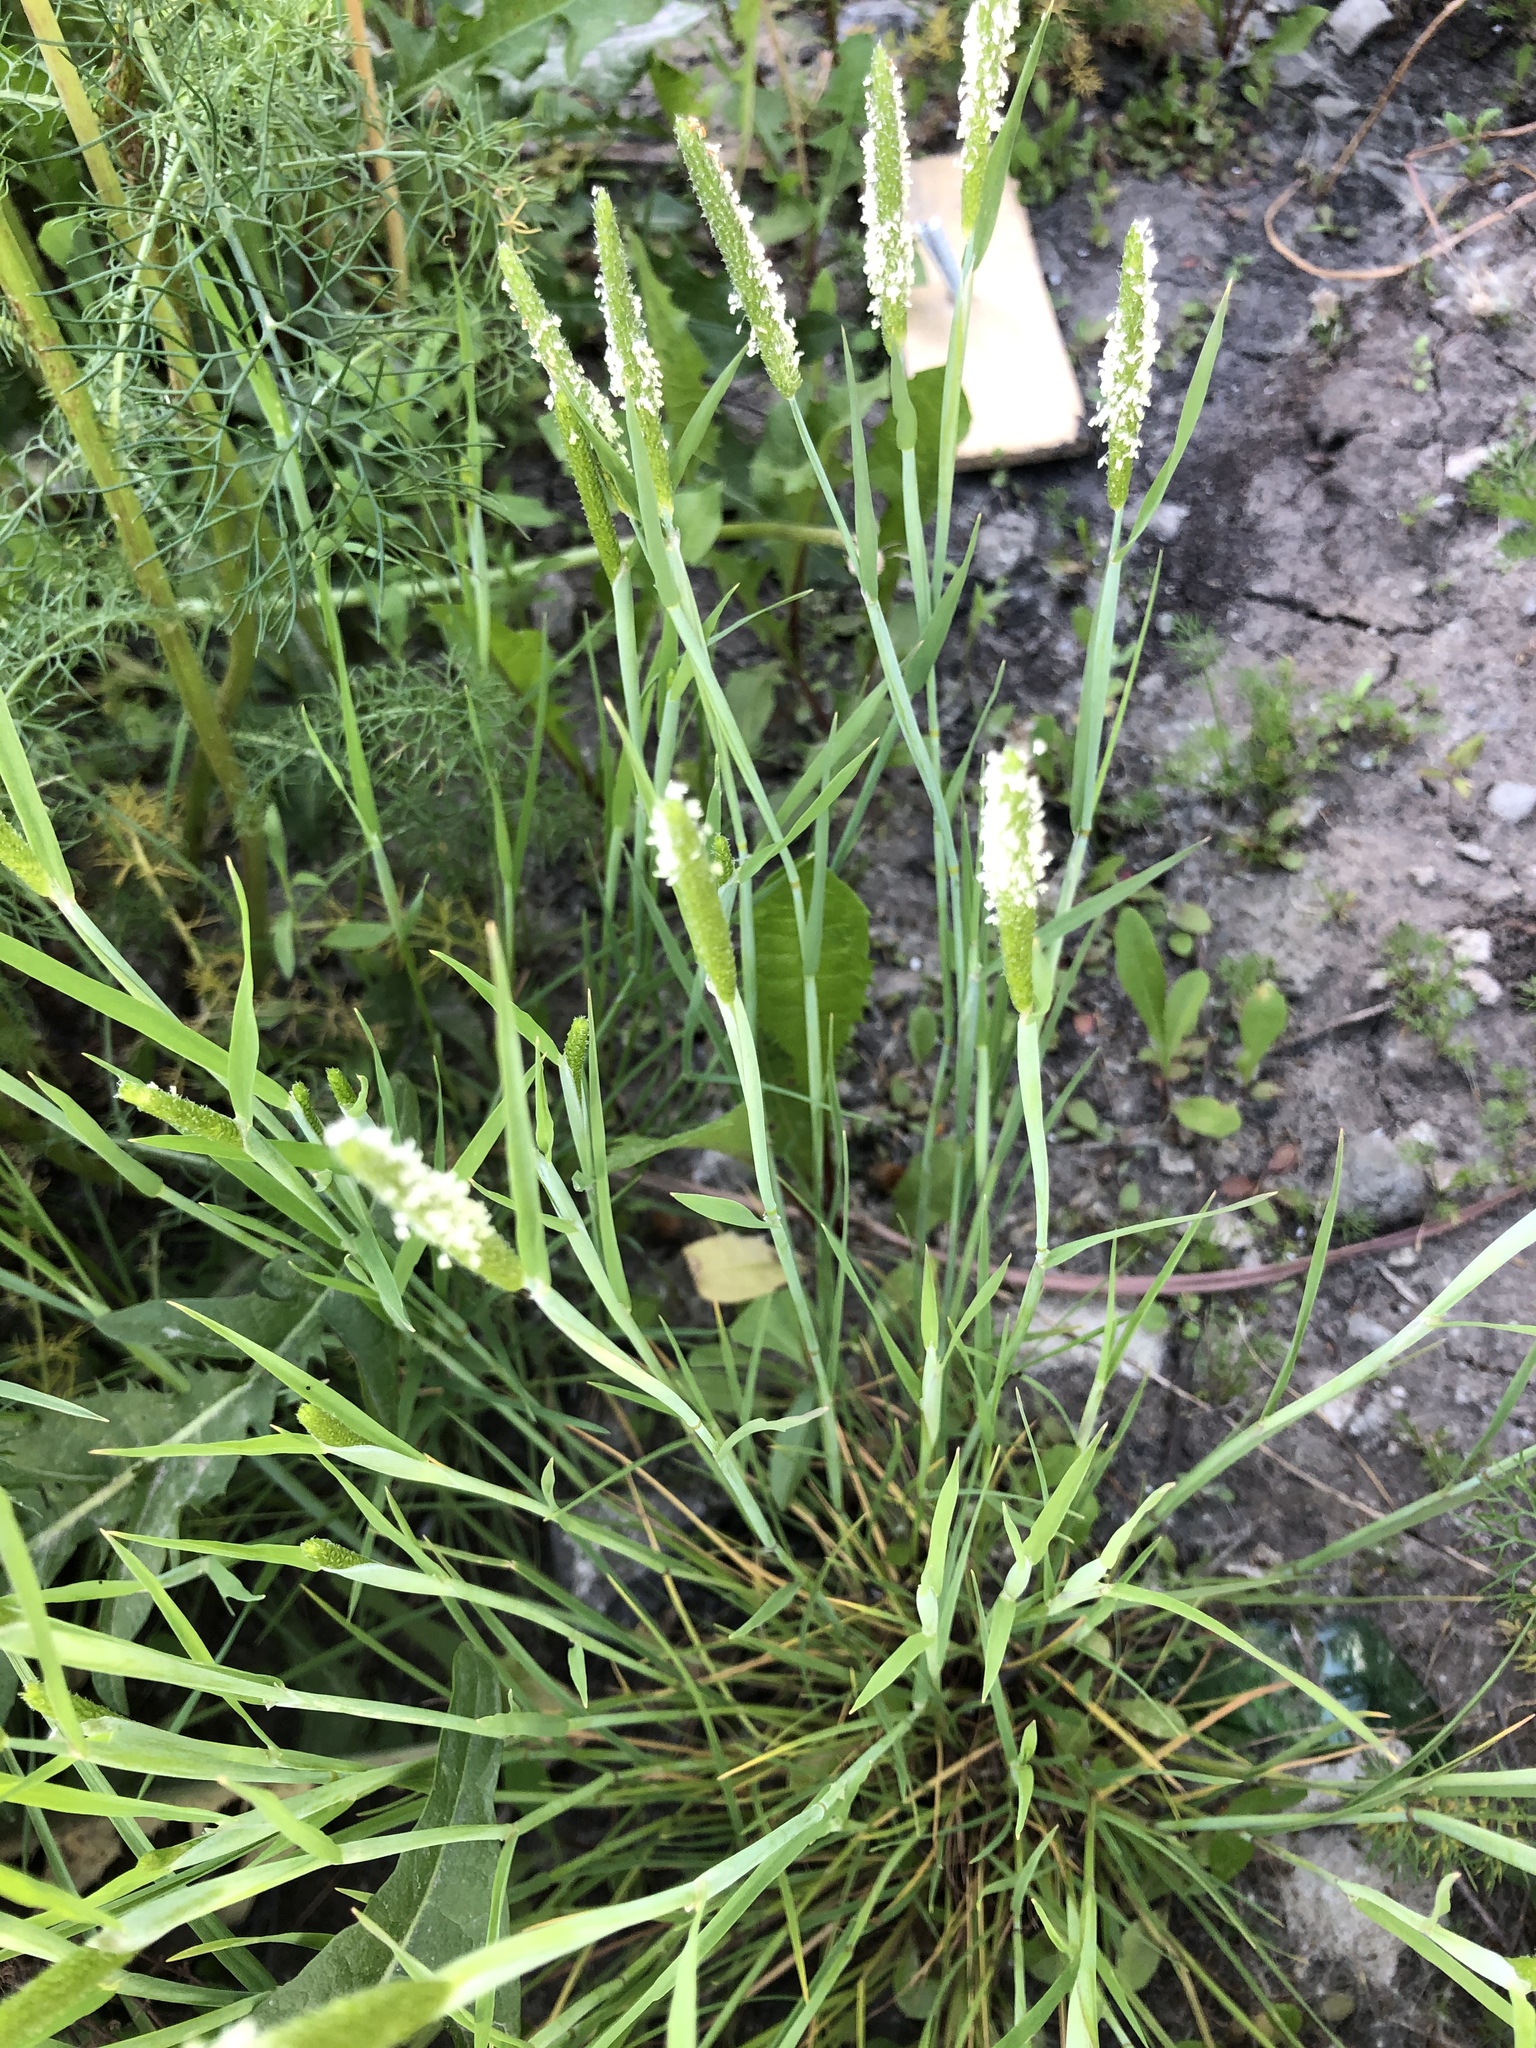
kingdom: Plantae
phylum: Tracheophyta
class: Liliopsida
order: Poales
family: Poaceae
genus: Alopecurus
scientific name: Alopecurus aequalis
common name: Orange foxtail
